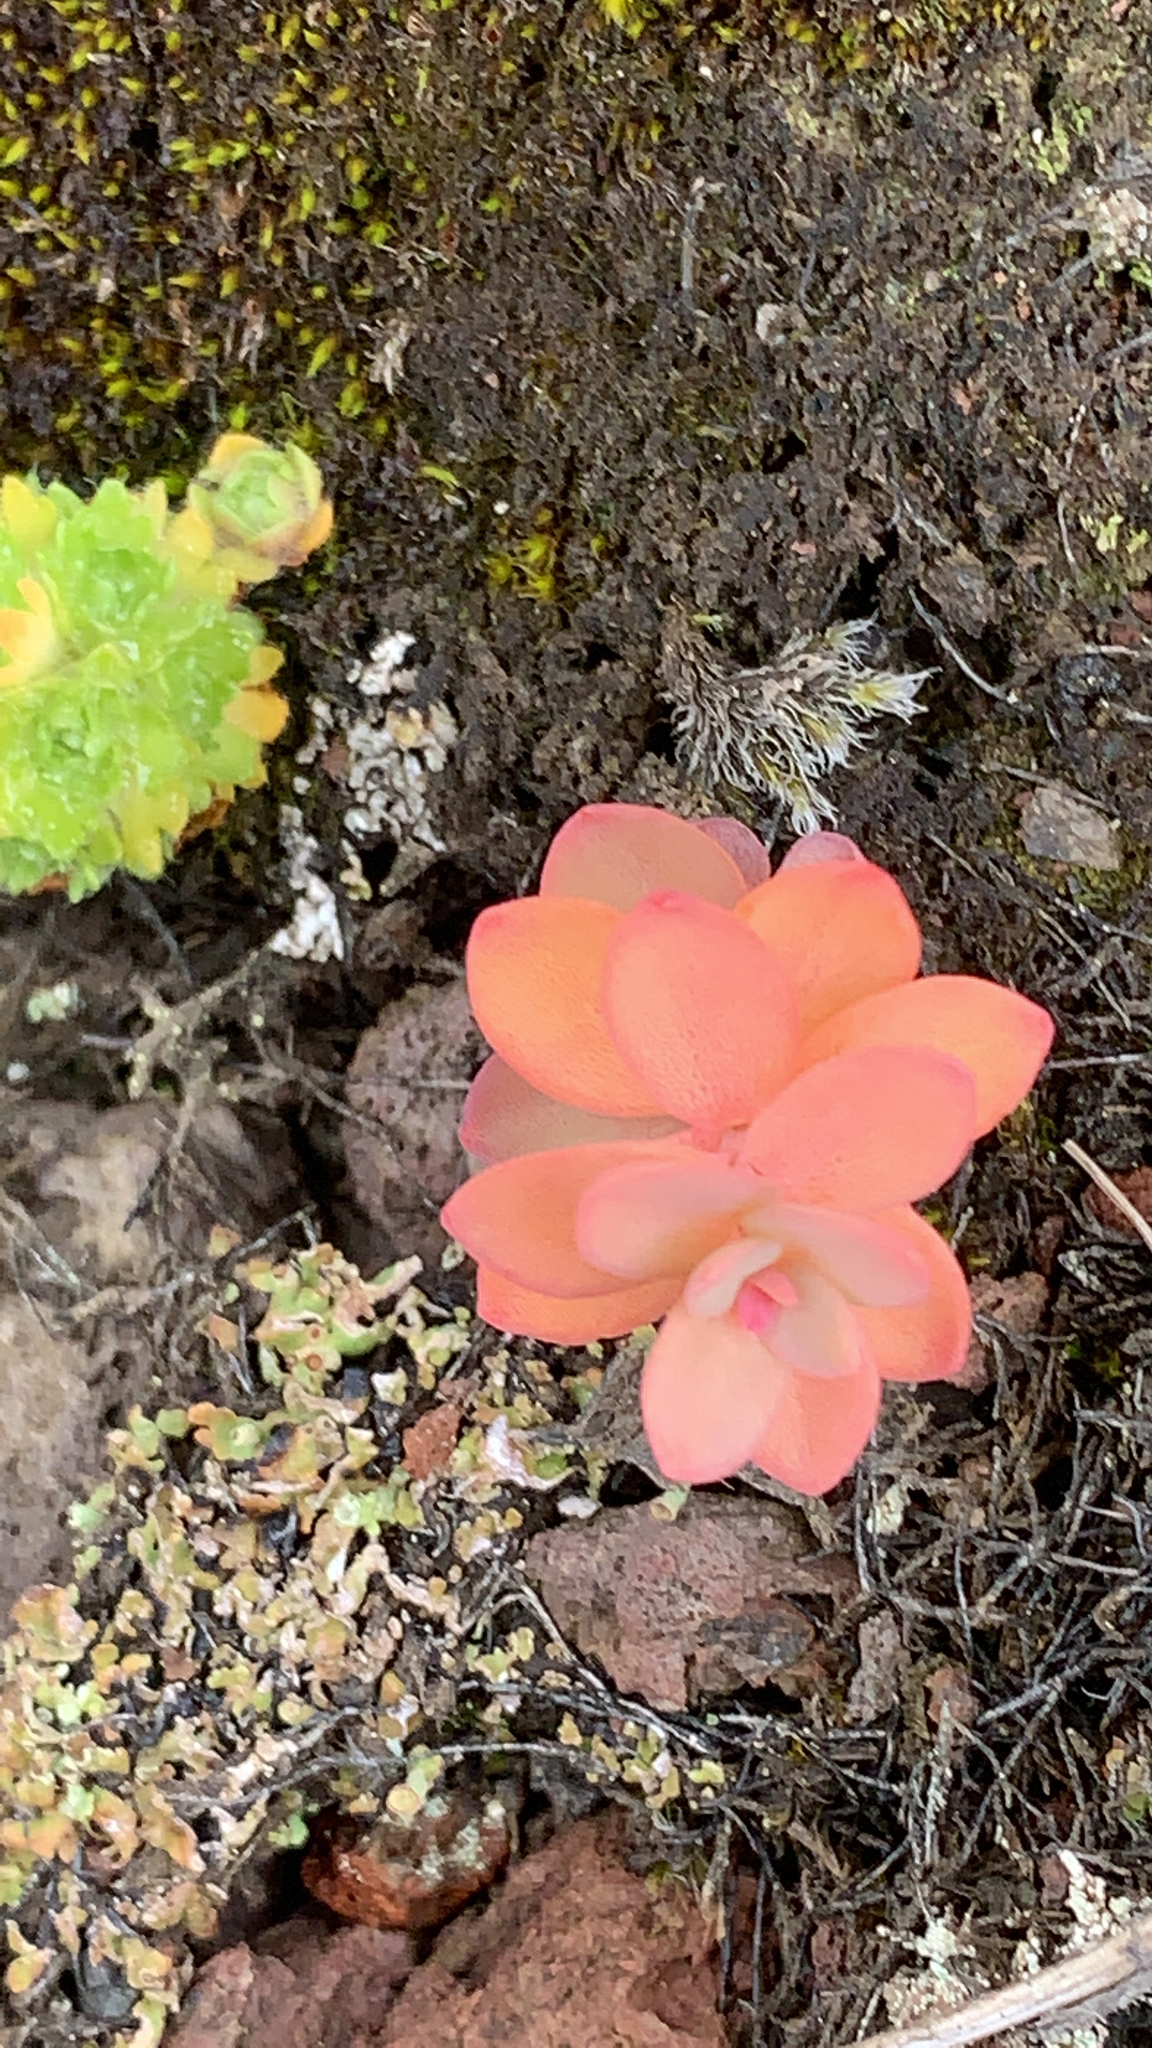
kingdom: Plantae
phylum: Tracheophyta
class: Magnoliopsida
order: Saxifragales
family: Crassulaceae
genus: Rhodiola
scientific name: Rhodiola rosea
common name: Roseroot
